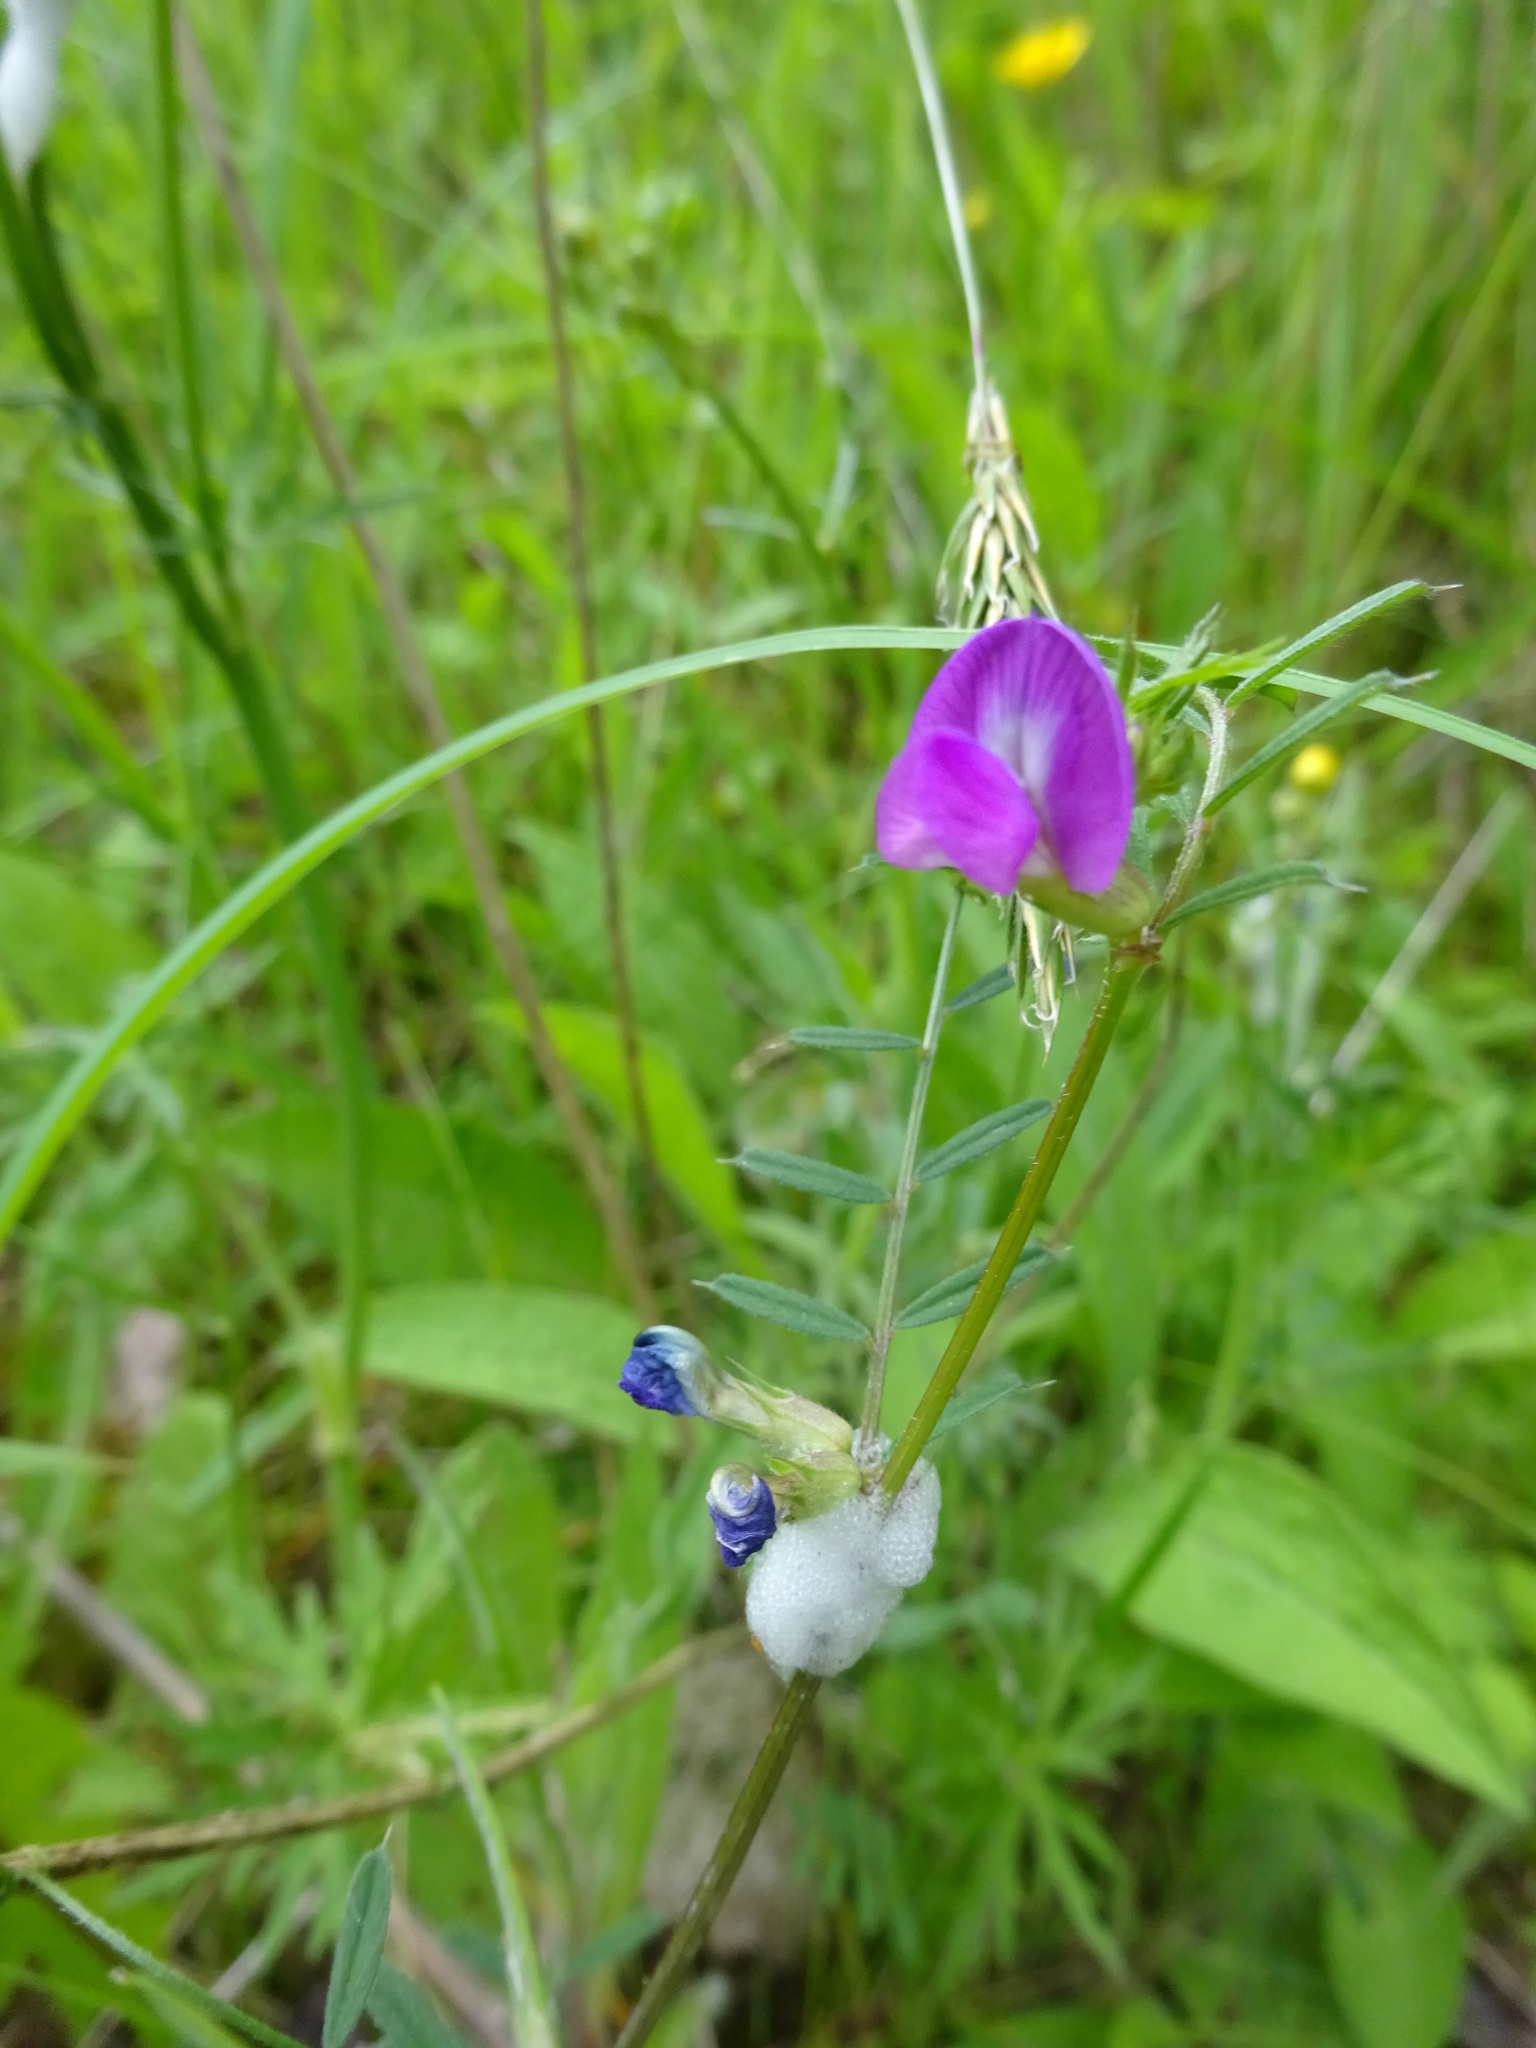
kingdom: Plantae
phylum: Tracheophyta
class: Magnoliopsida
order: Fabales
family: Fabaceae
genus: Vicia
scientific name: Vicia sativa
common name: Garden vetch
